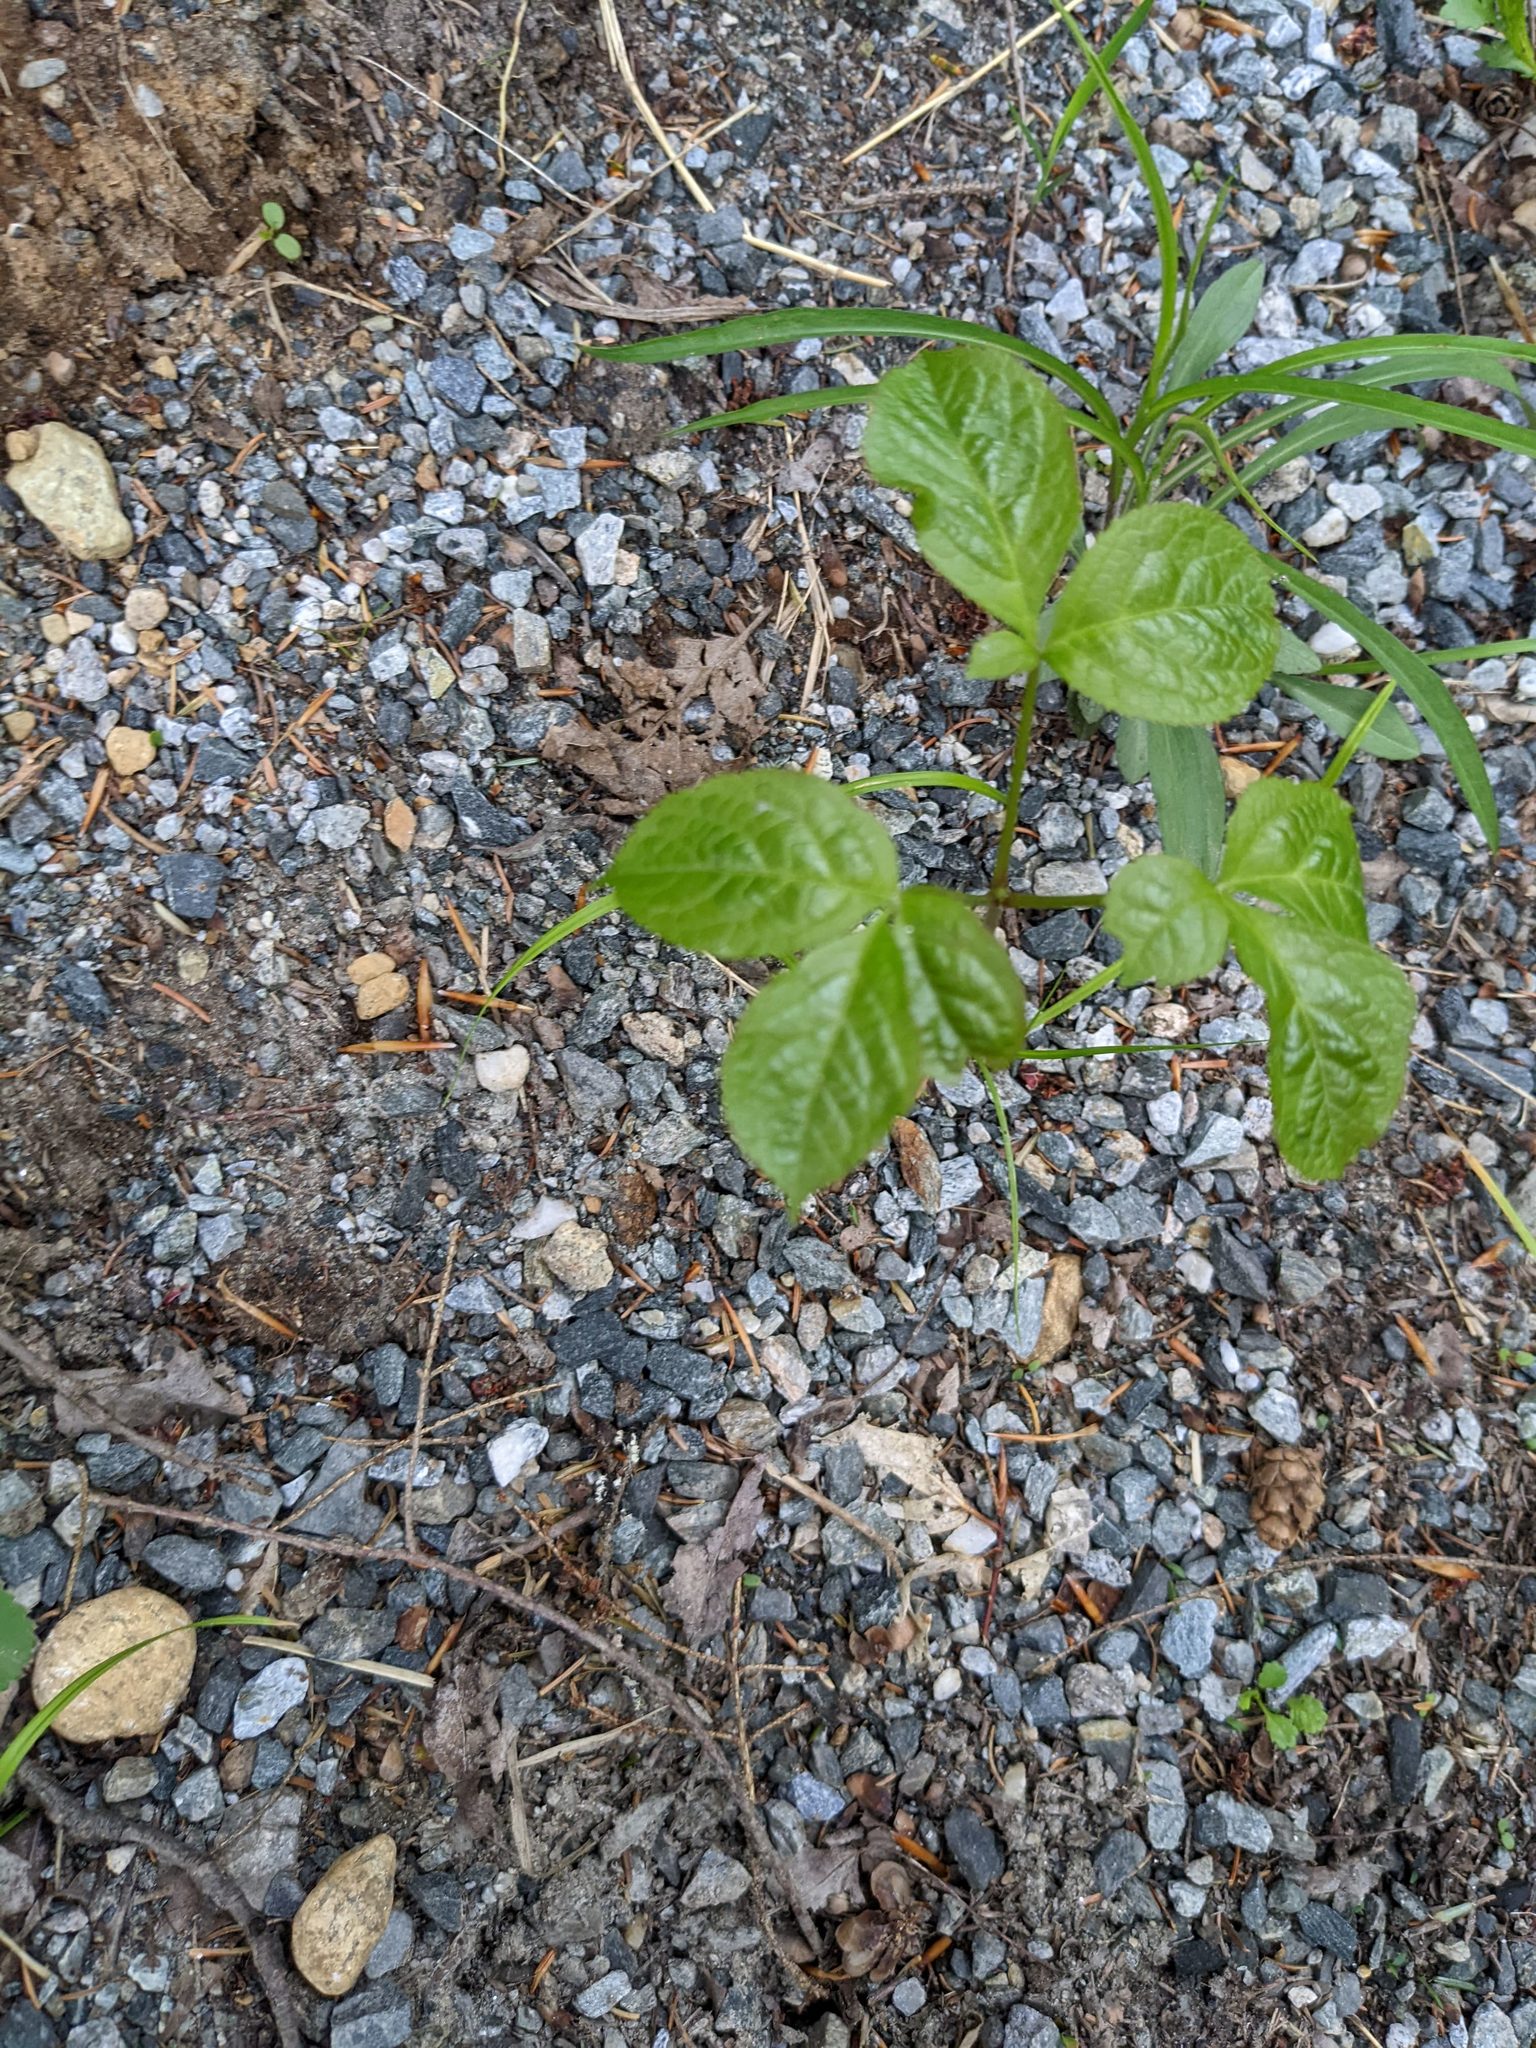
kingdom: Plantae
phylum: Tracheophyta
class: Magnoliopsida
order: Apiales
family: Araliaceae
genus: Aralia
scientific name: Aralia nudicaulis
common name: Wild sarsaparilla
